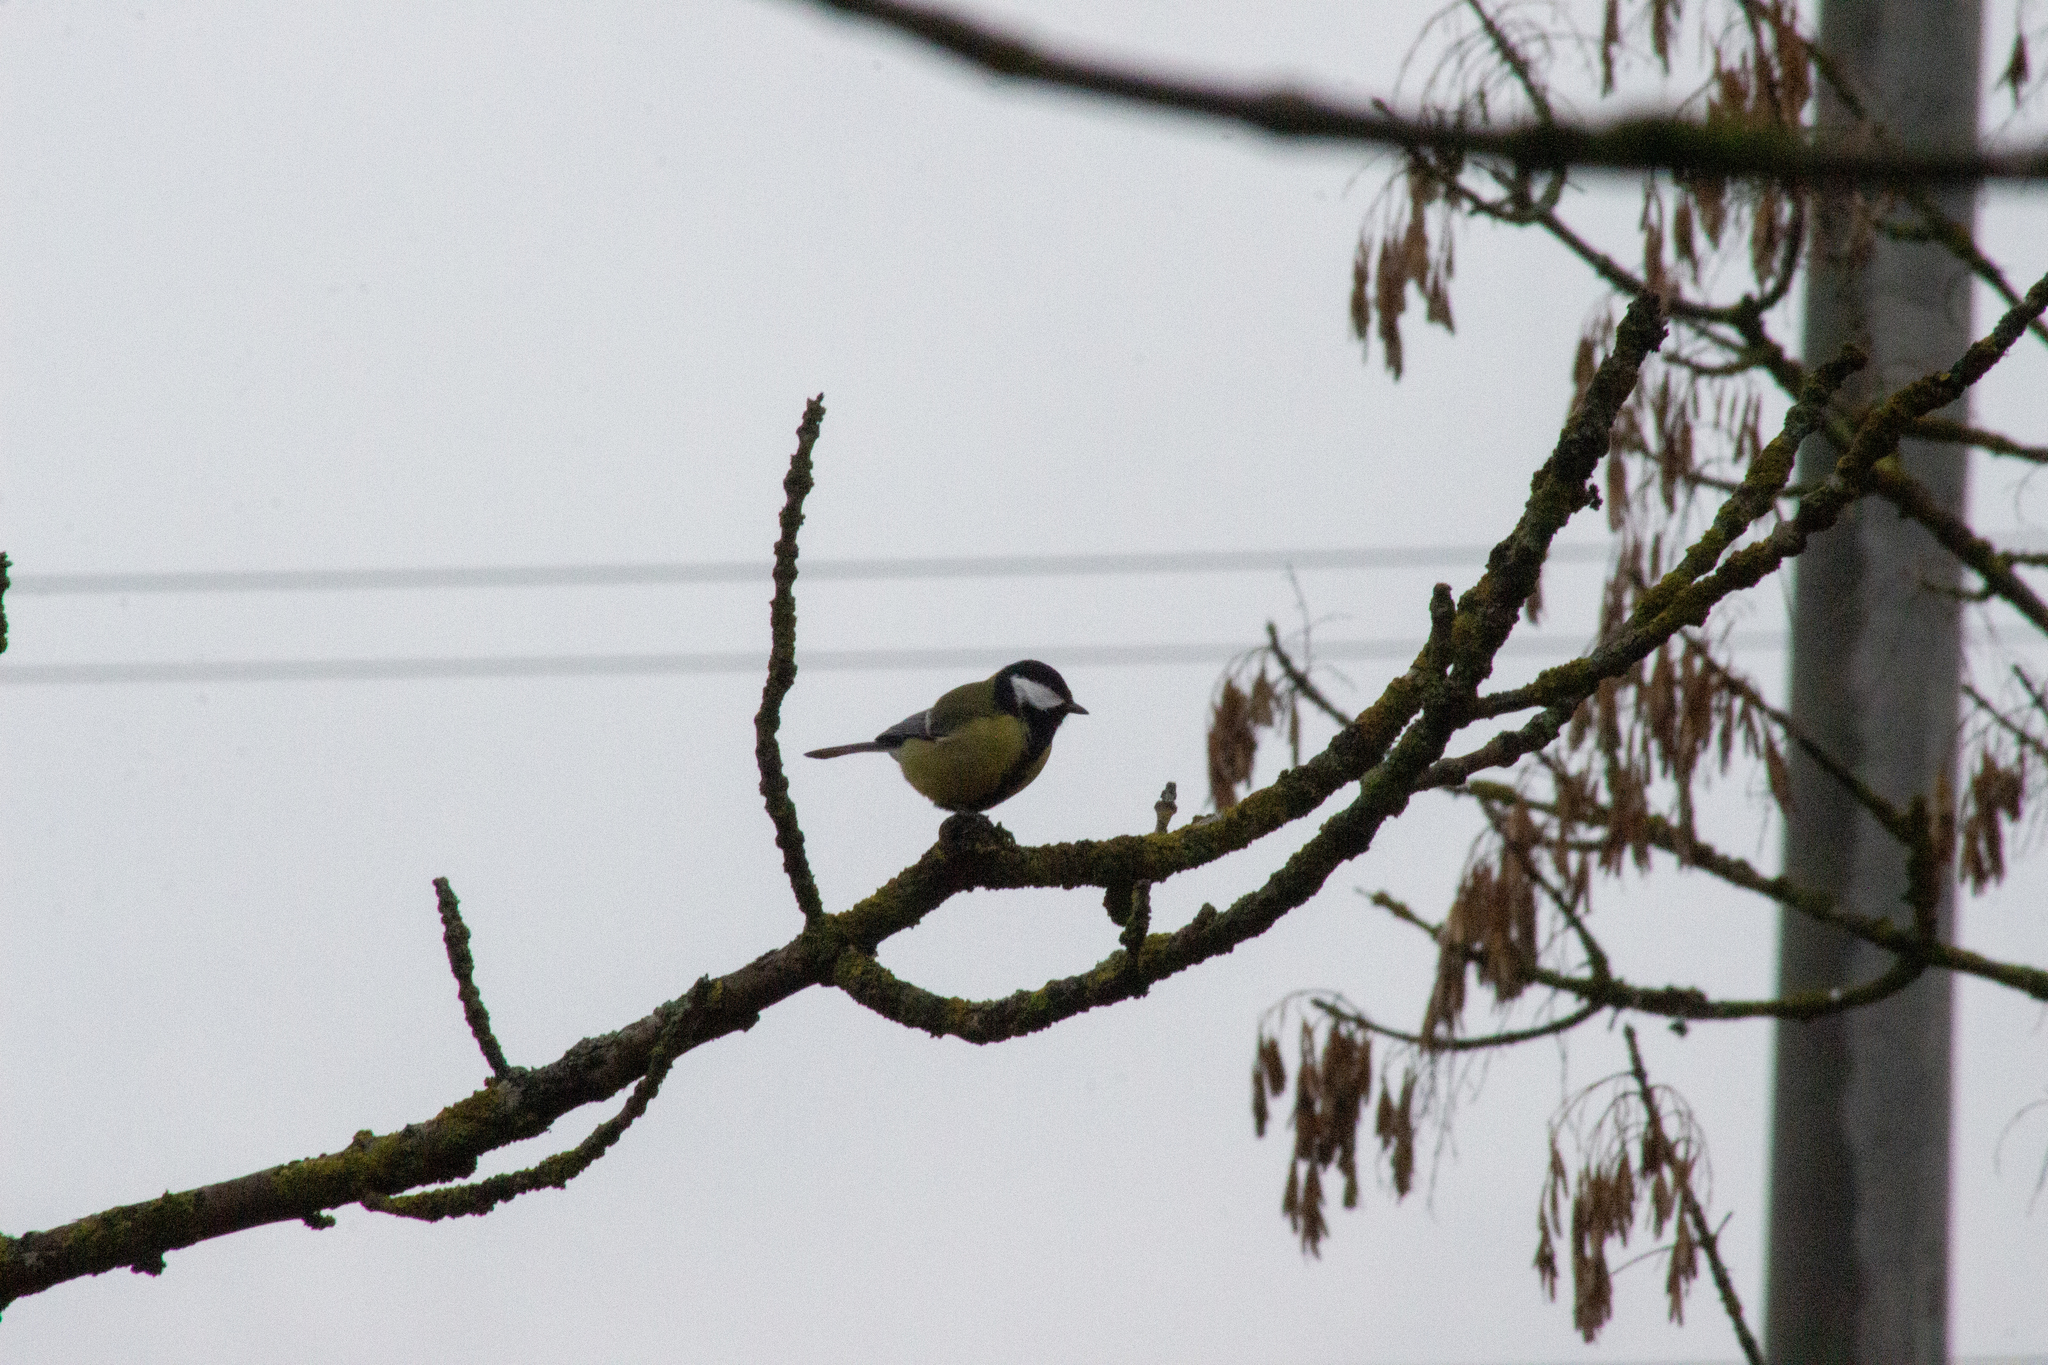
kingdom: Animalia
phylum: Chordata
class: Aves
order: Passeriformes
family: Paridae
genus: Parus
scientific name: Parus major
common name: Great tit
